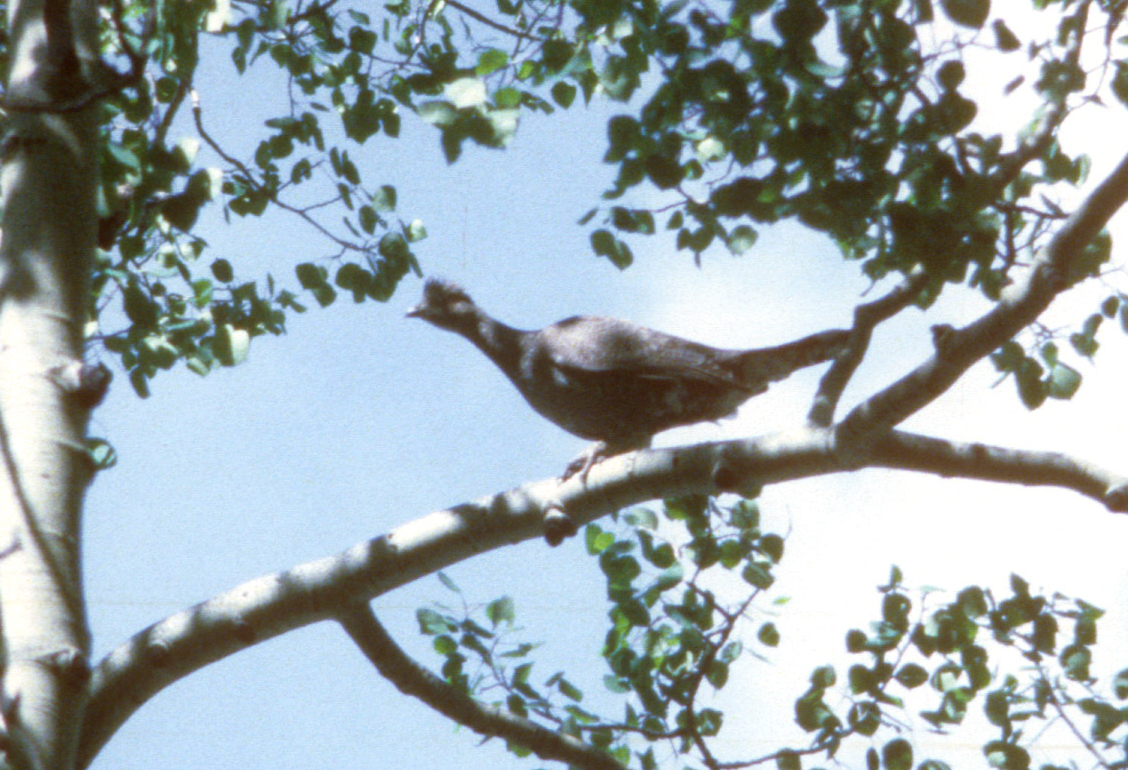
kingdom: Animalia
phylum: Chordata
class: Aves
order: Galliformes
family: Phasianidae
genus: Dendragapus
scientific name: Dendragapus obscurus
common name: Dusky grouse
